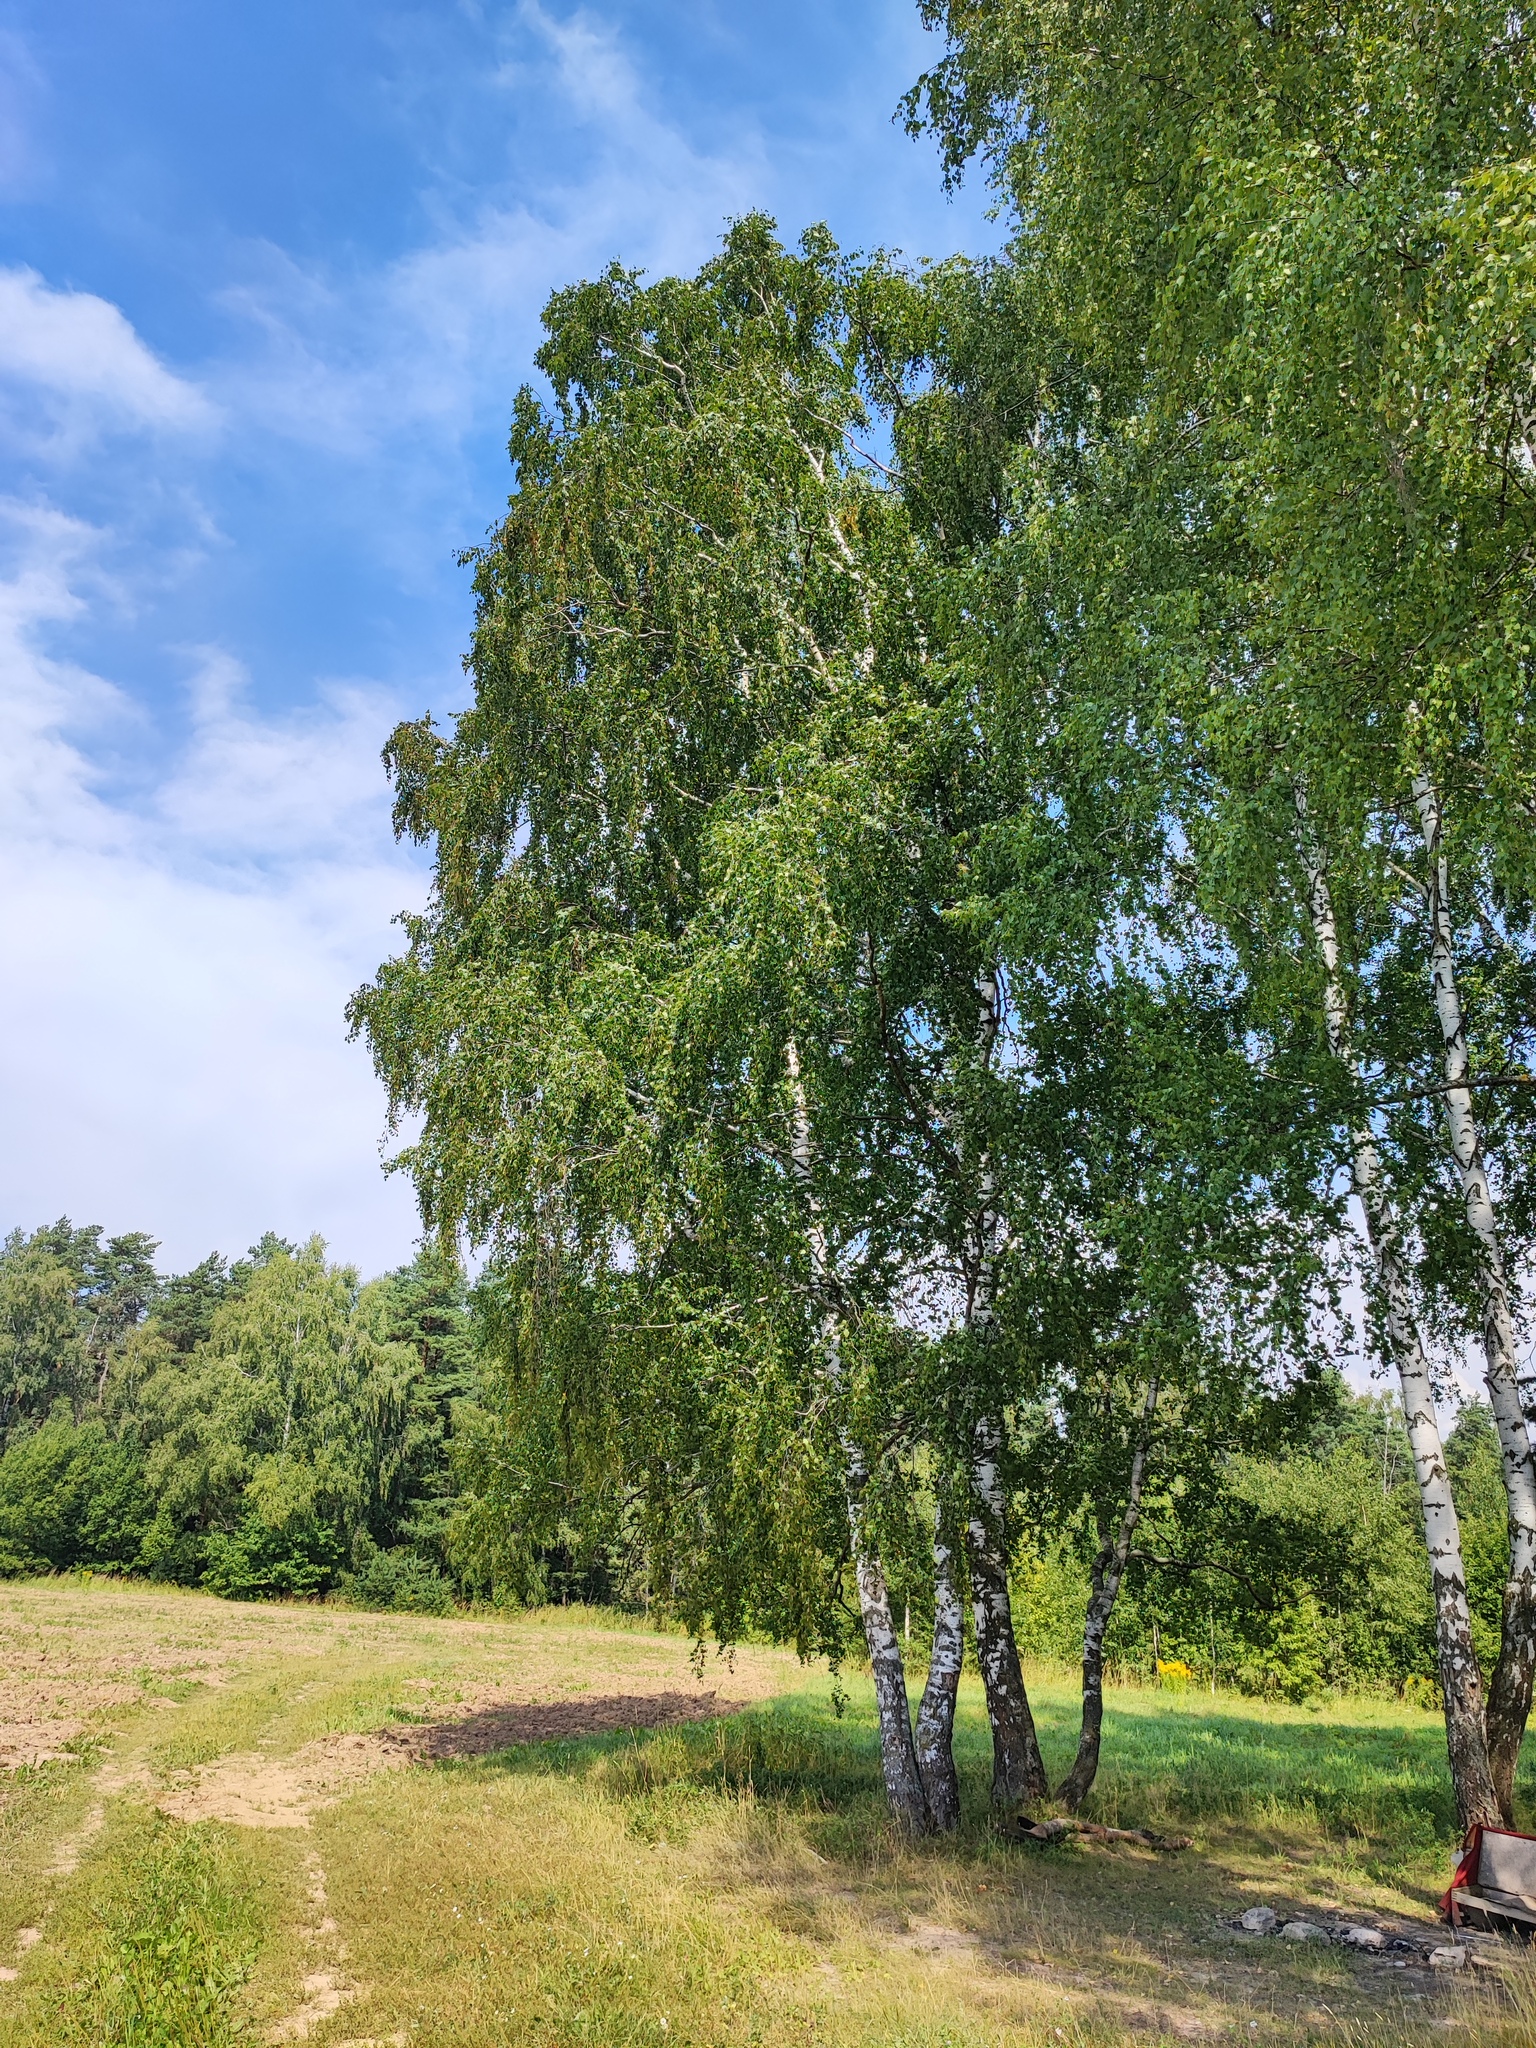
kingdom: Plantae
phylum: Tracheophyta
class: Magnoliopsida
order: Fagales
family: Betulaceae
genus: Betula
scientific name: Betula pendula
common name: Silver birch
